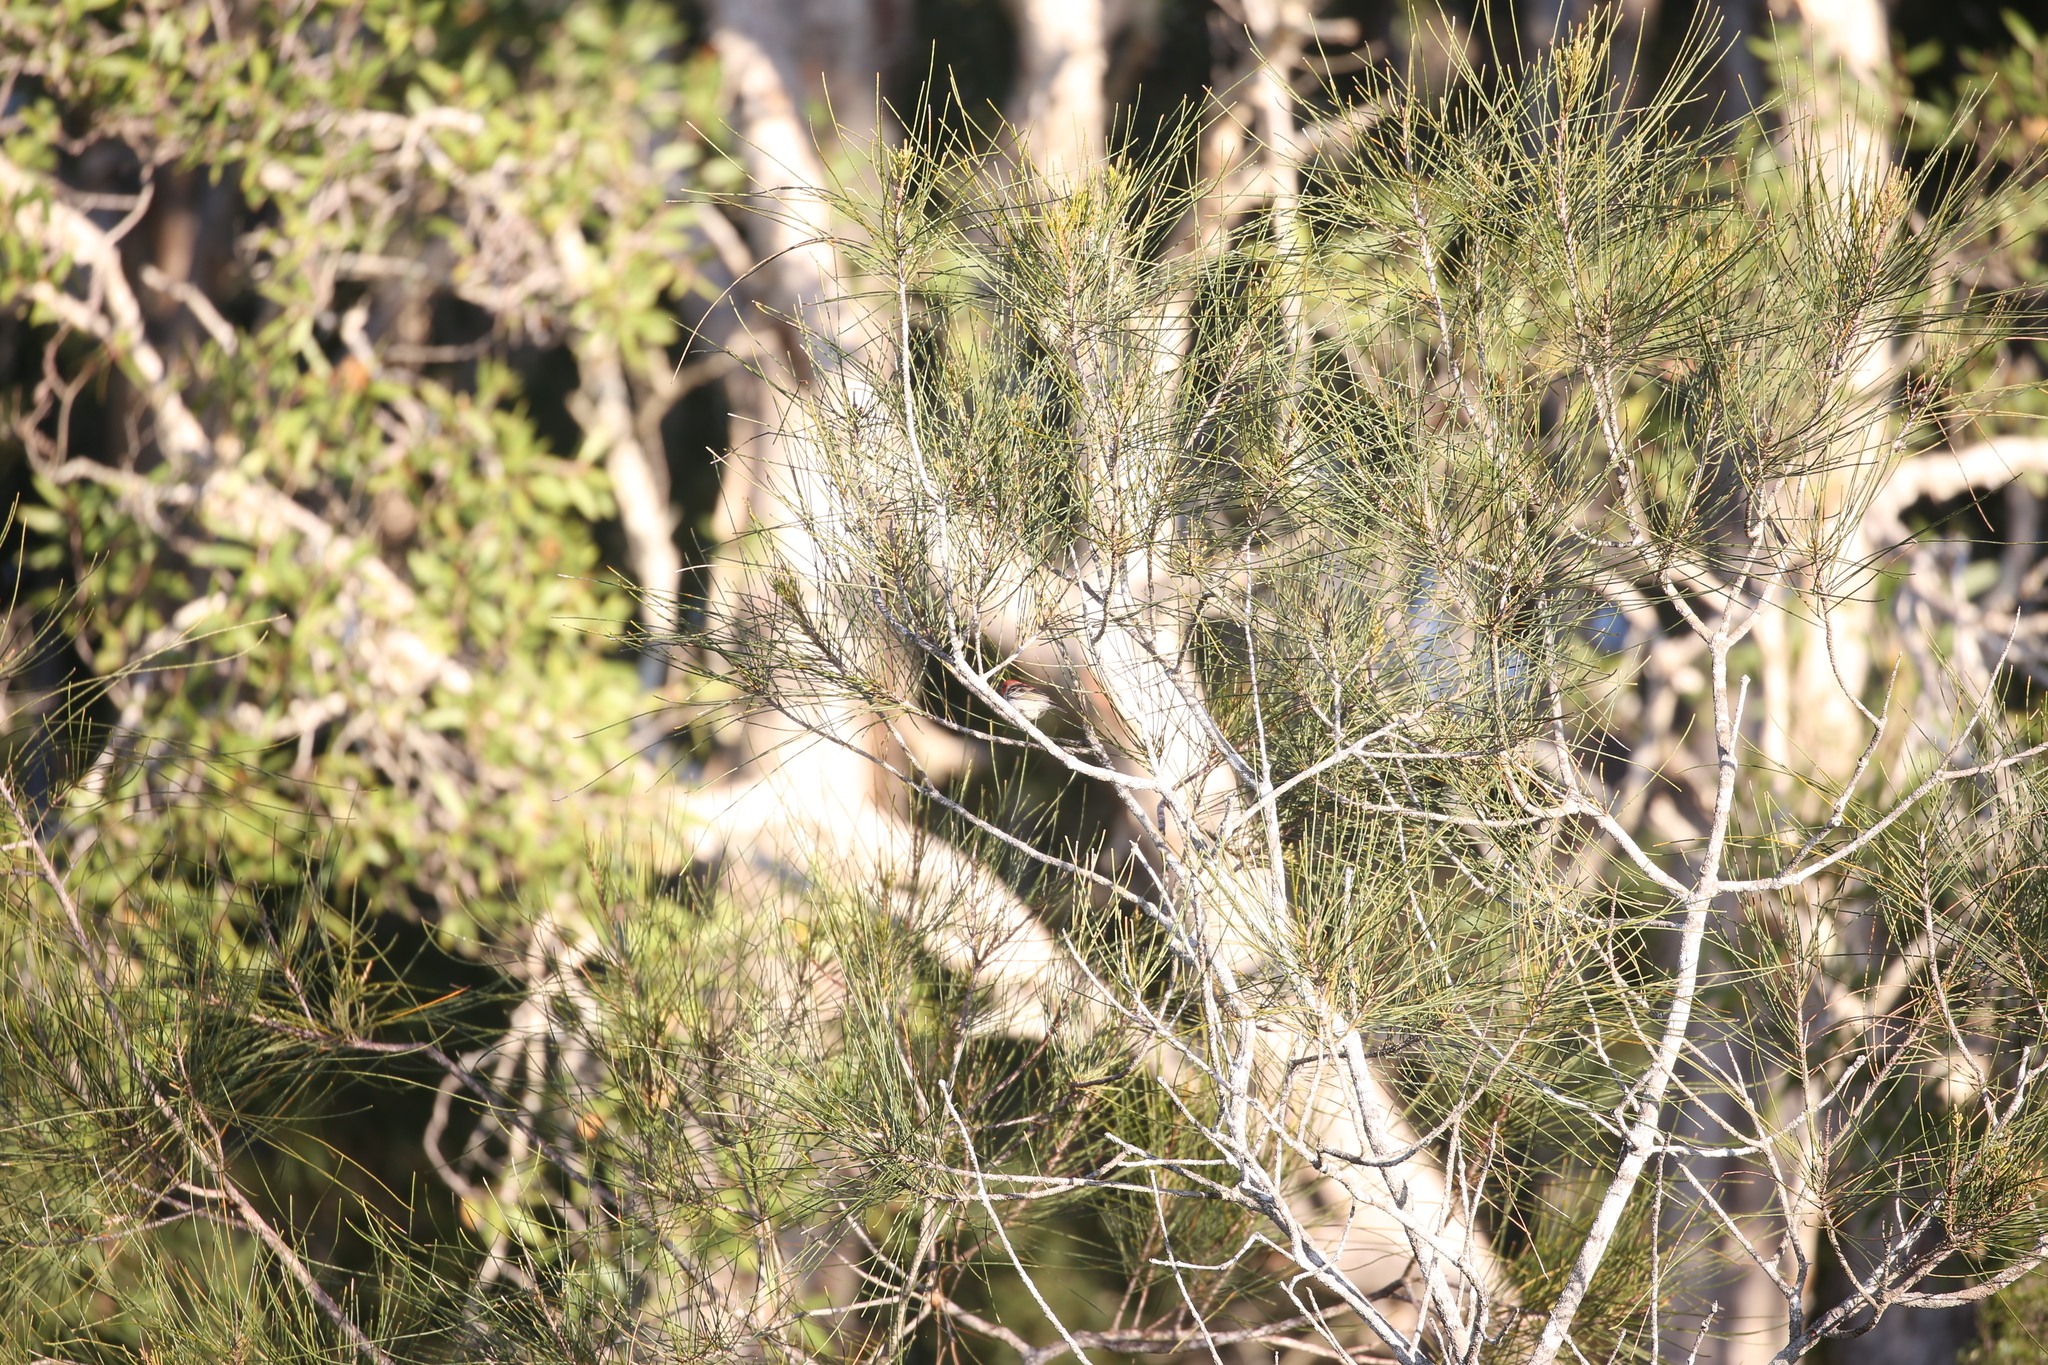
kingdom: Animalia
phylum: Chordata
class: Aves
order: Passeriformes
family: Meliphagidae
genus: Myzomela
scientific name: Myzomela sanguinolenta
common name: Scarlet myzomela
